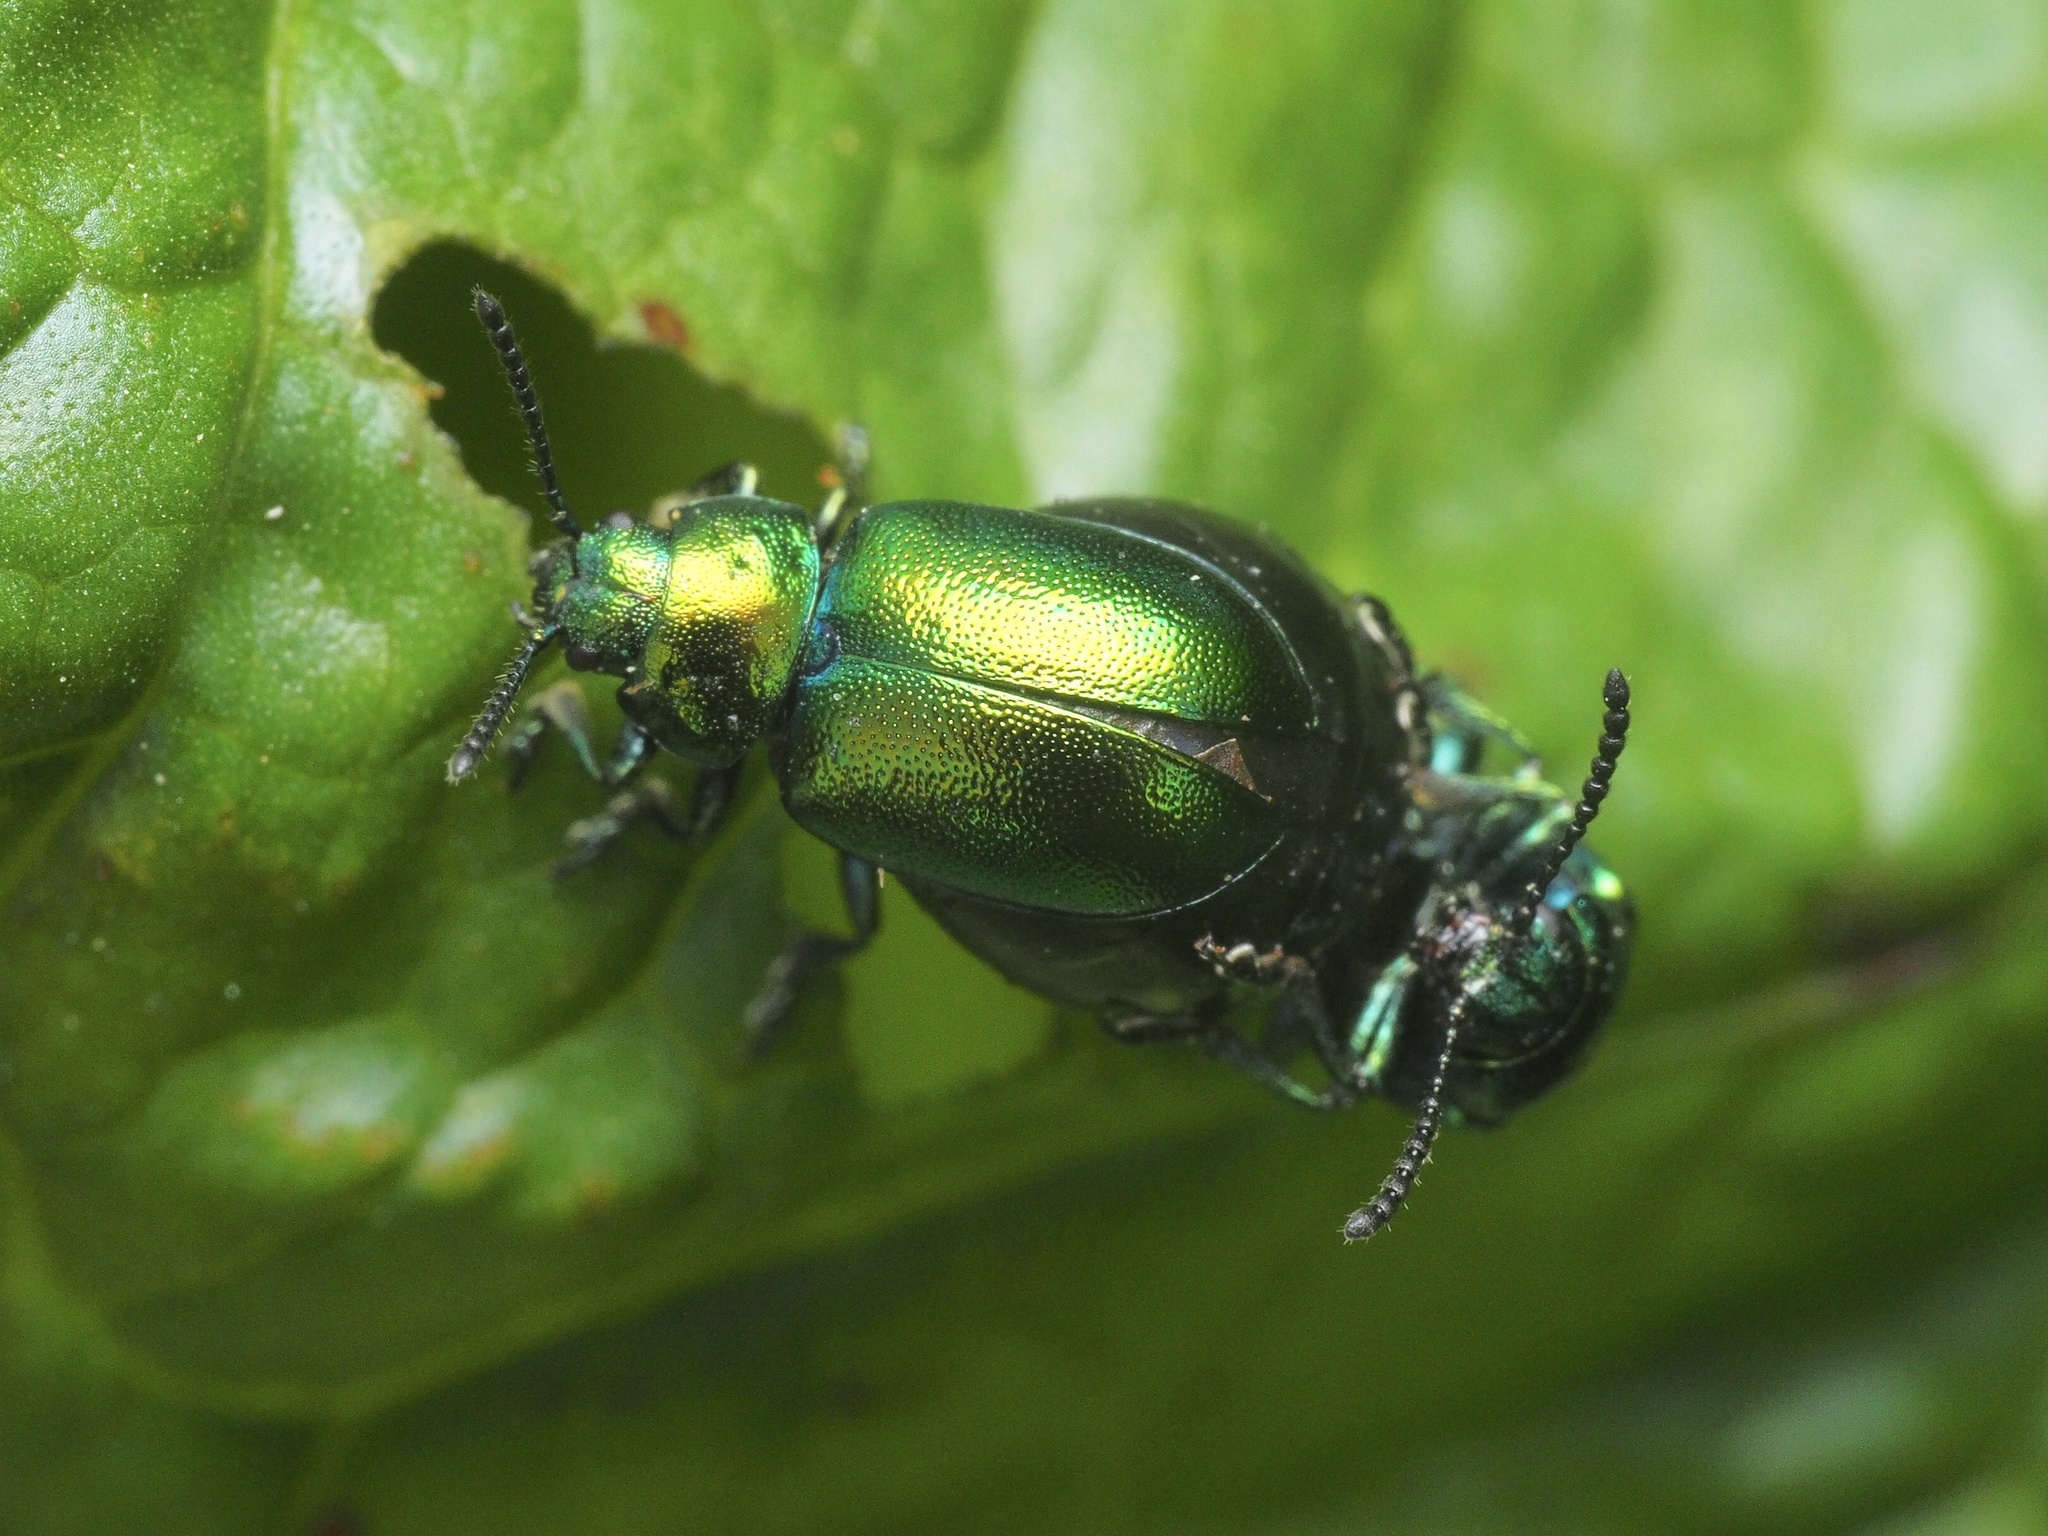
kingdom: Animalia
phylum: Arthropoda
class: Insecta
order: Coleoptera
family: Chrysomelidae
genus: Gastrophysa
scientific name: Gastrophysa viridula
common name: Green dock beetle
